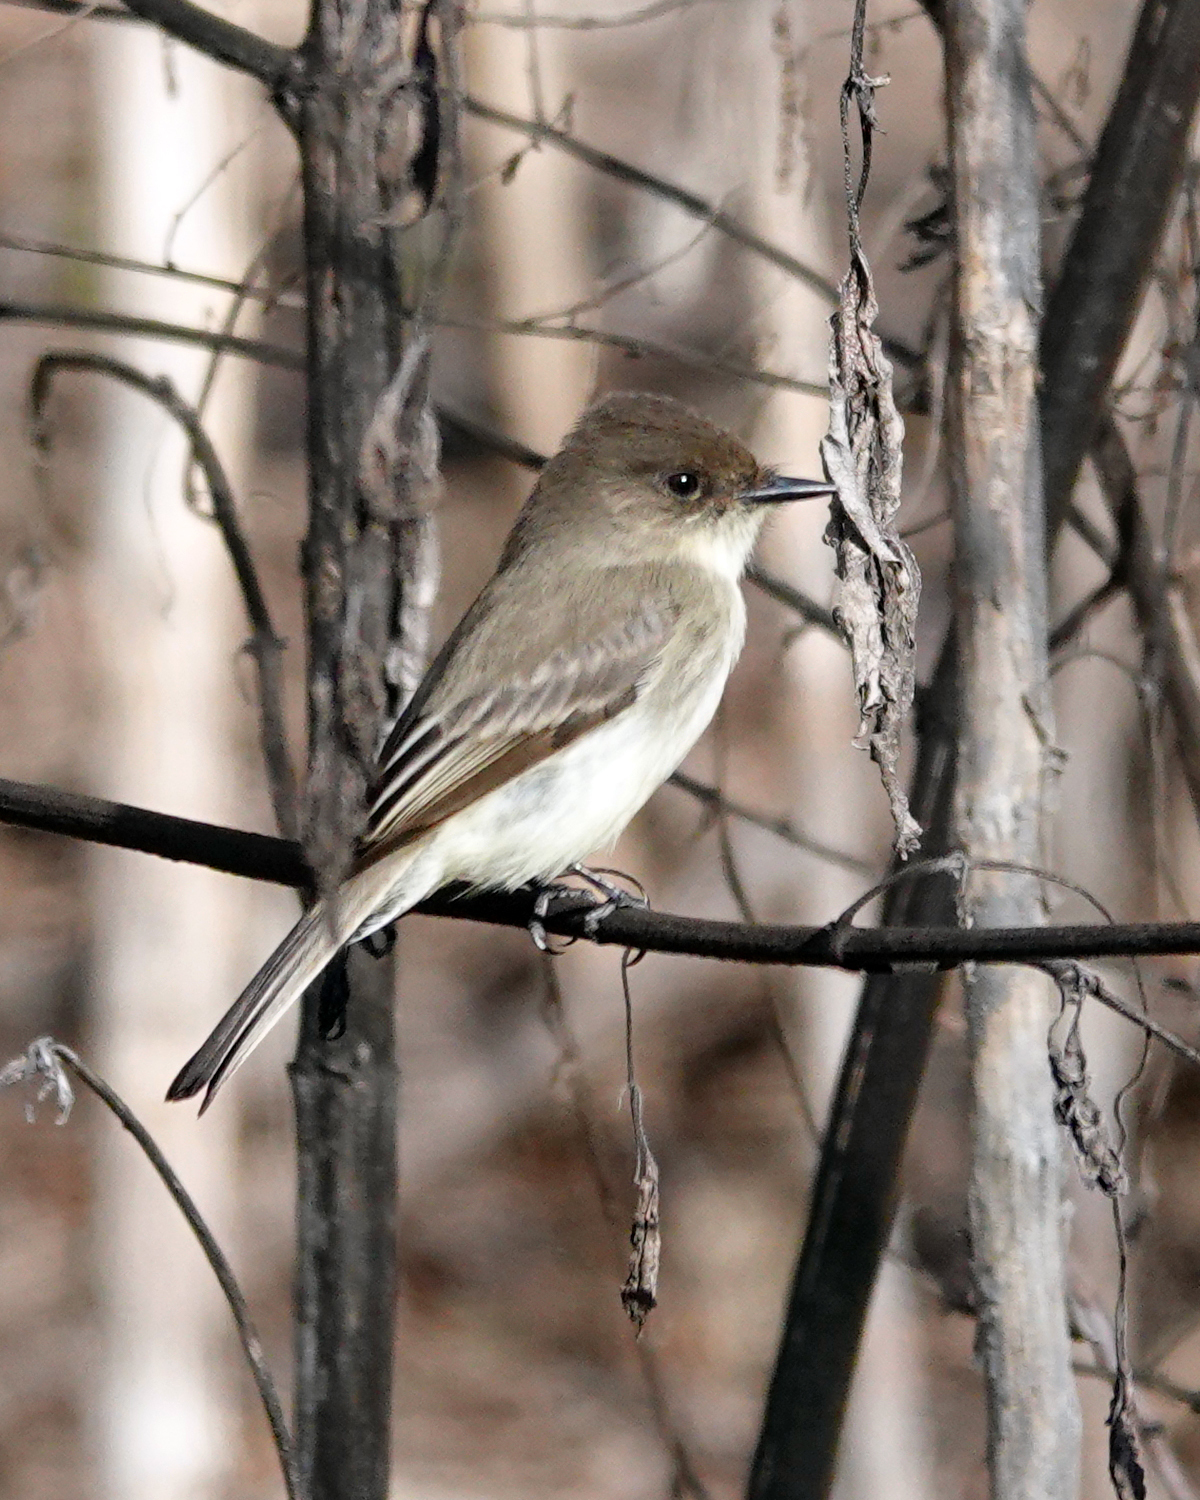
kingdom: Animalia
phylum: Chordata
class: Aves
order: Passeriformes
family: Tyrannidae
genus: Sayornis
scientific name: Sayornis phoebe
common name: Eastern phoebe
